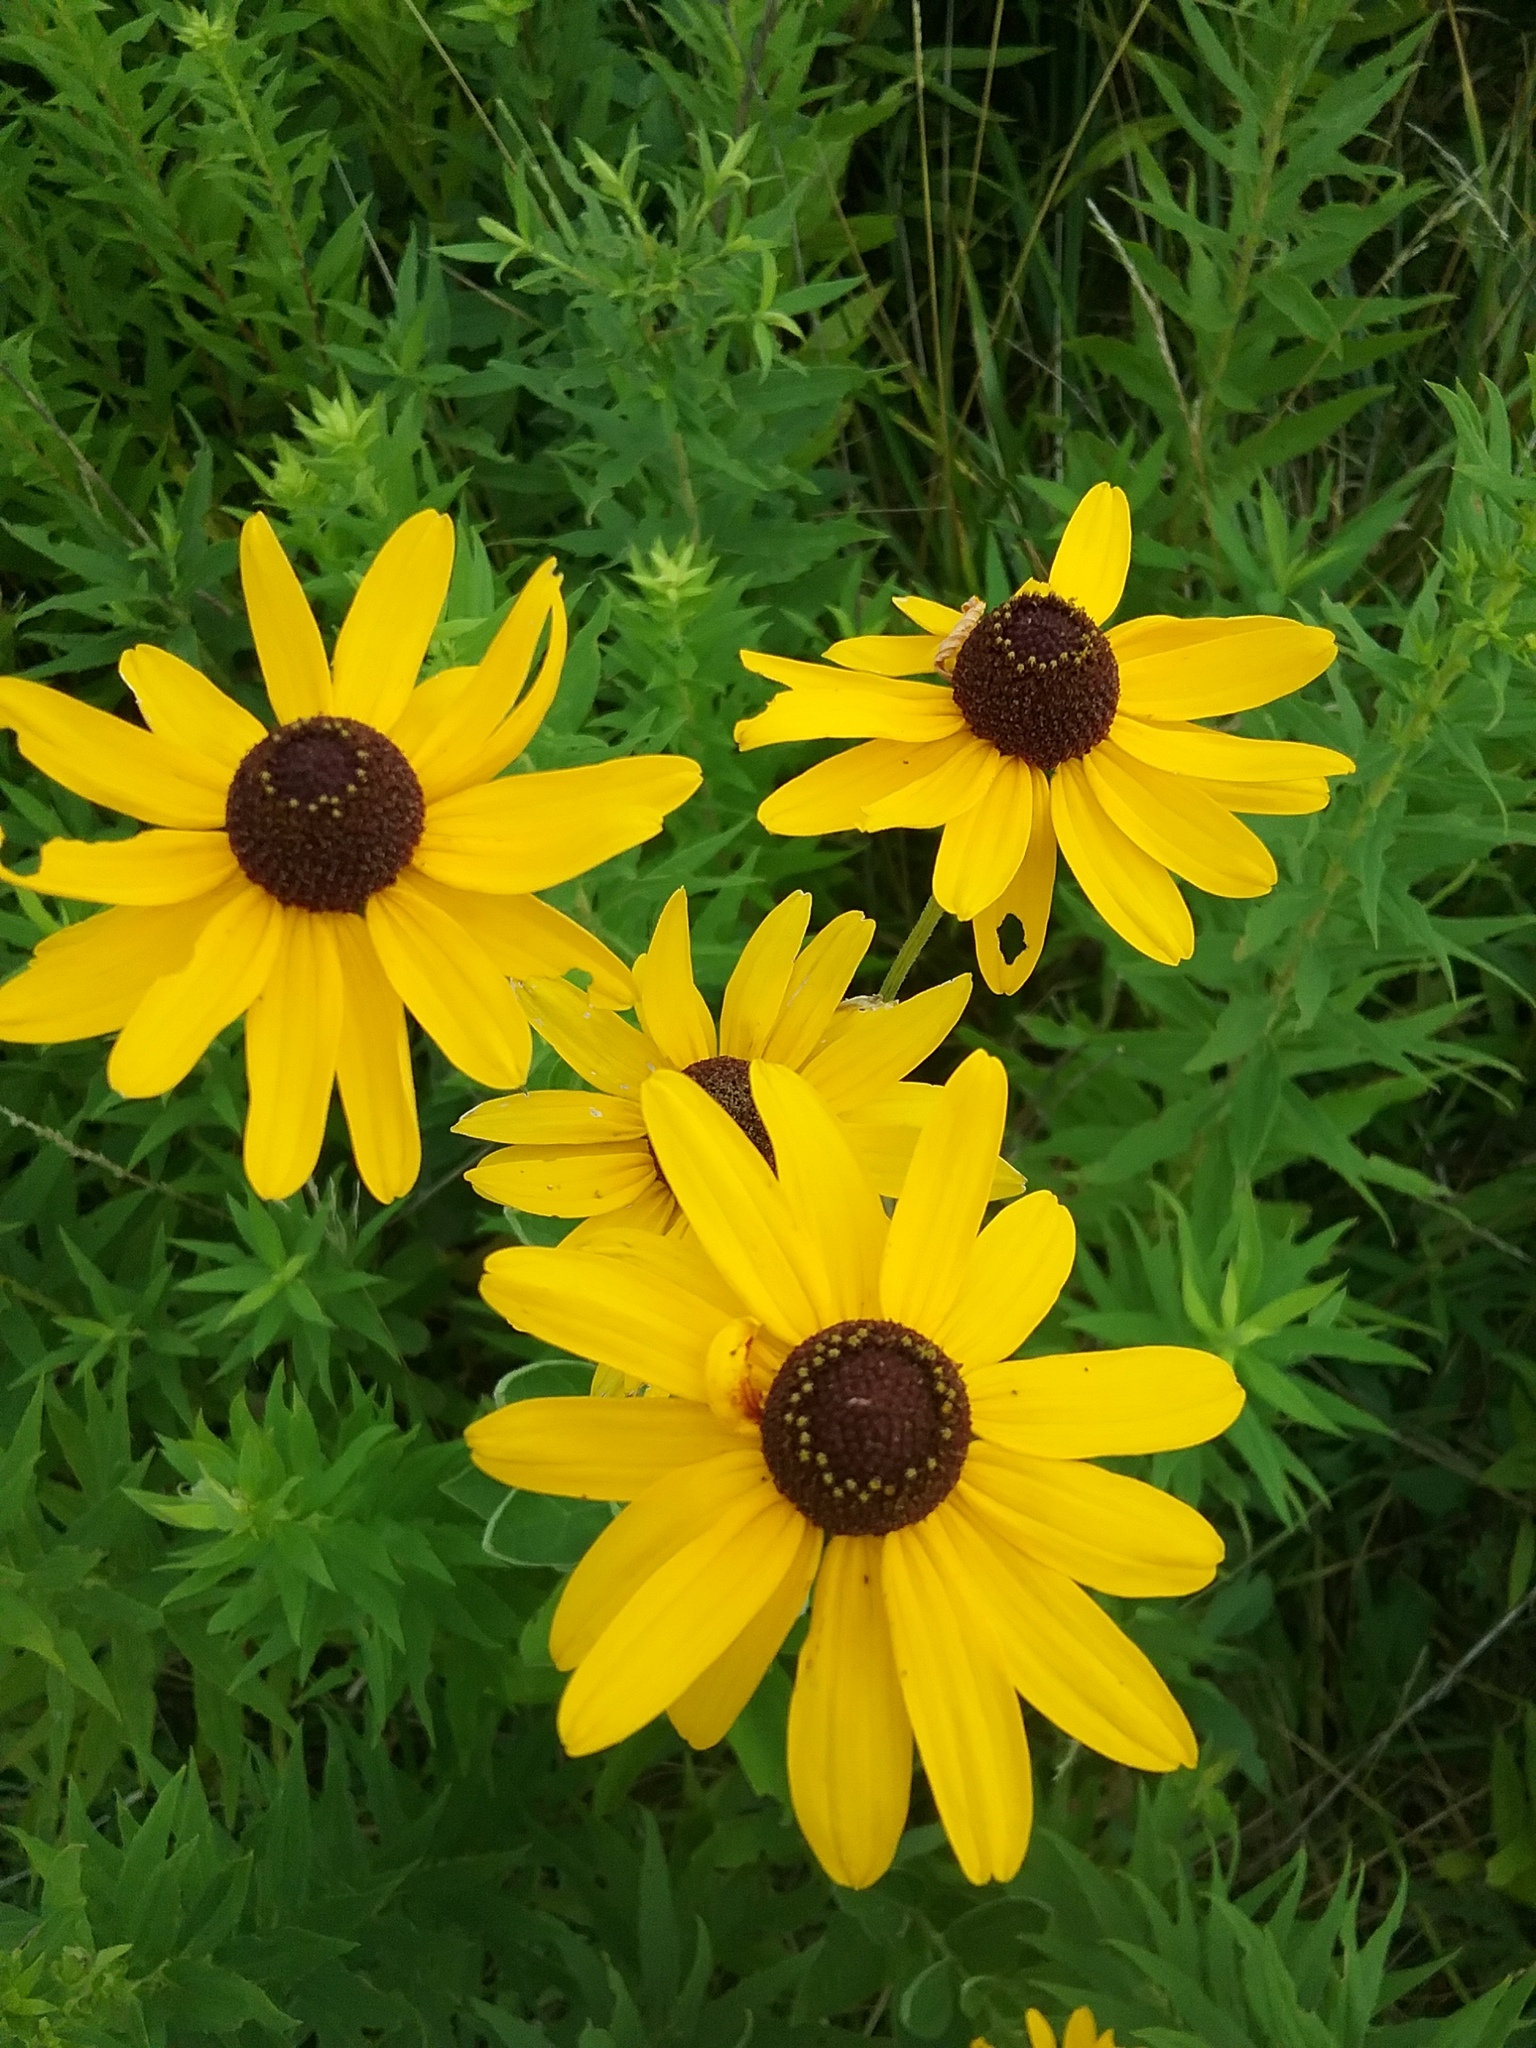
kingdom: Plantae
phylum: Tracheophyta
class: Magnoliopsida
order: Asterales
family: Asteraceae
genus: Rudbeckia
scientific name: Rudbeckia subtomentosa
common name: Sweet coneflower
